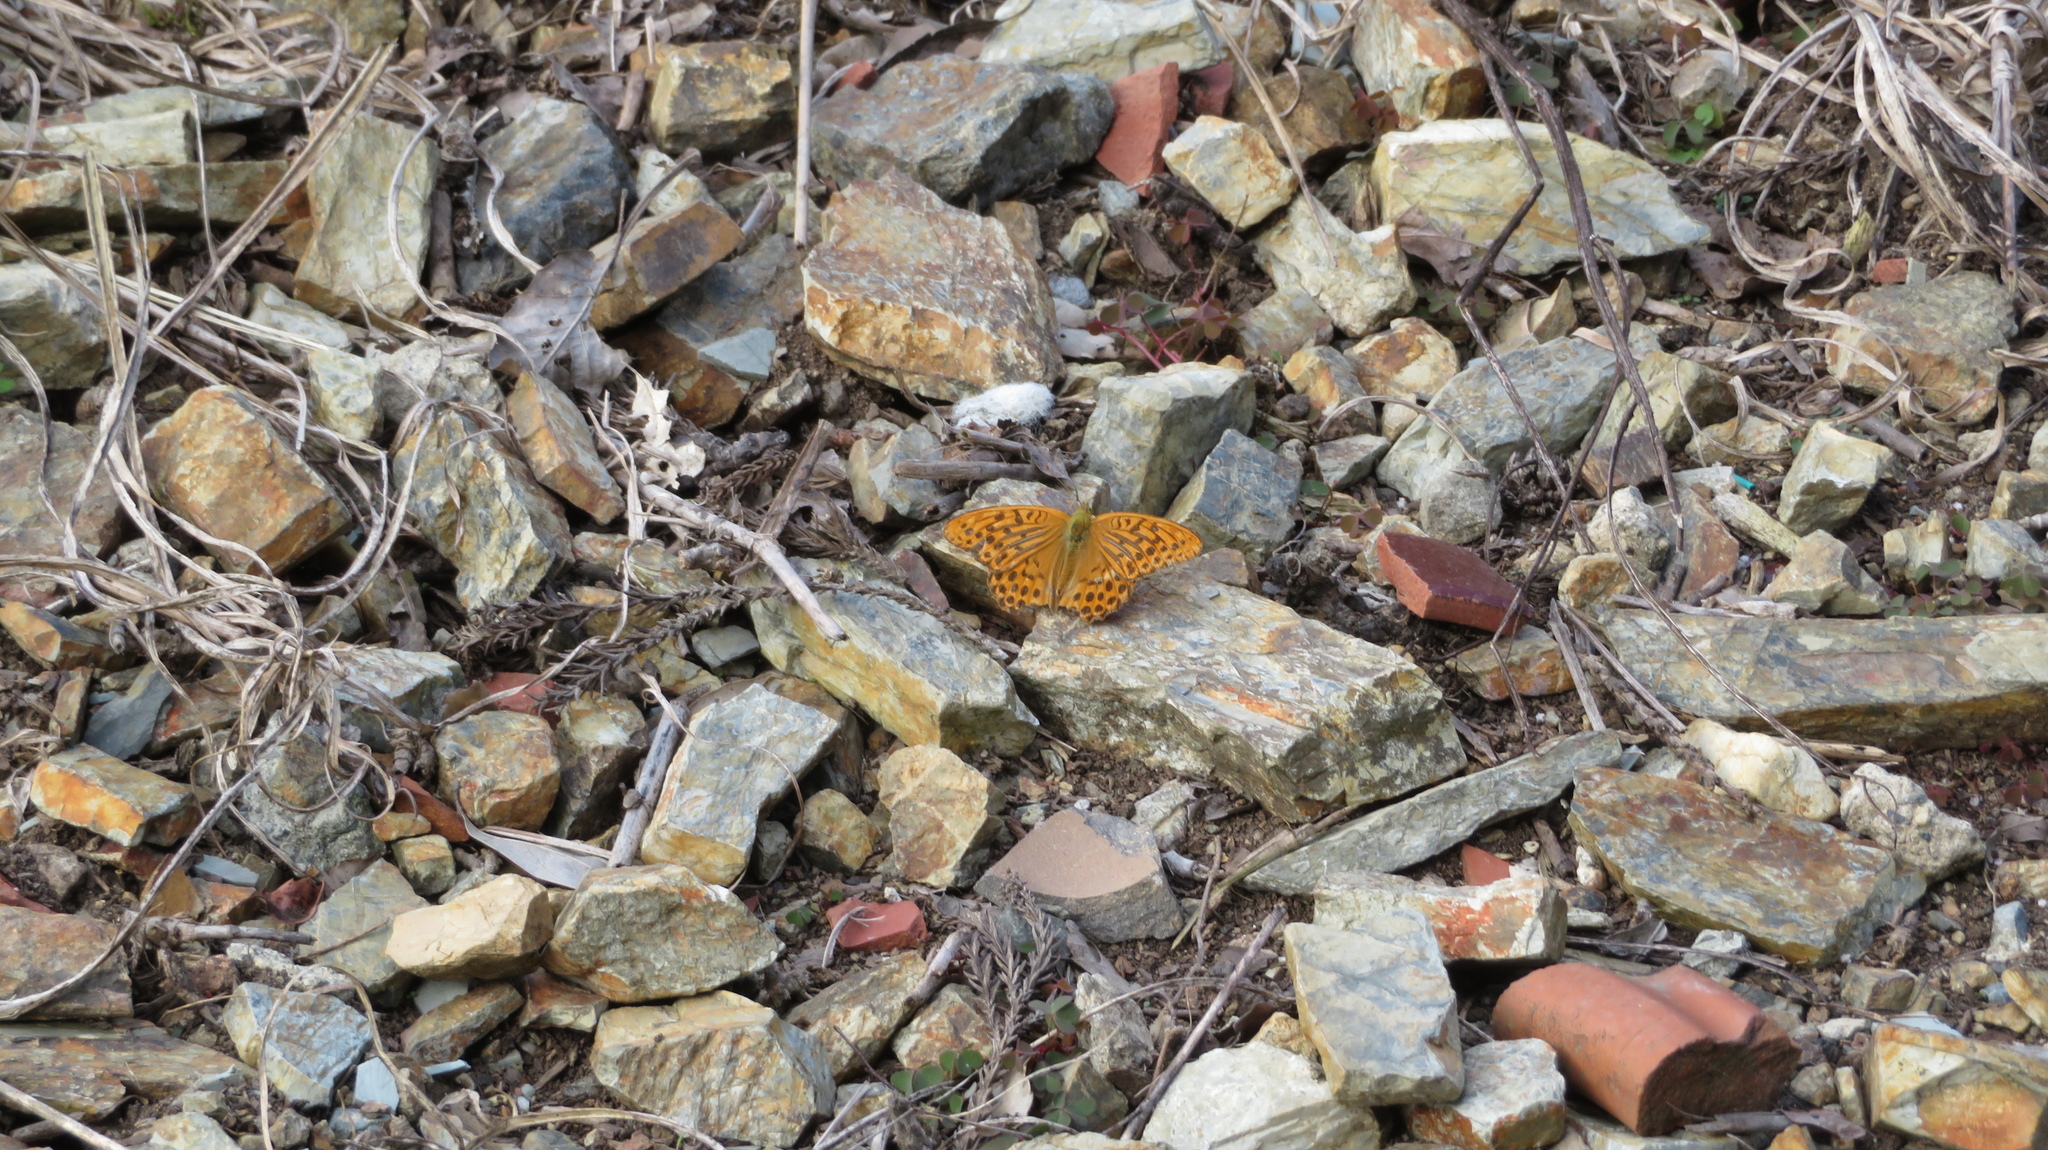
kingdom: Animalia
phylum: Arthropoda
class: Insecta
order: Lepidoptera
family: Nymphalidae
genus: Argynnis
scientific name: Argynnis paphia
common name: Silver-washed fritillary
